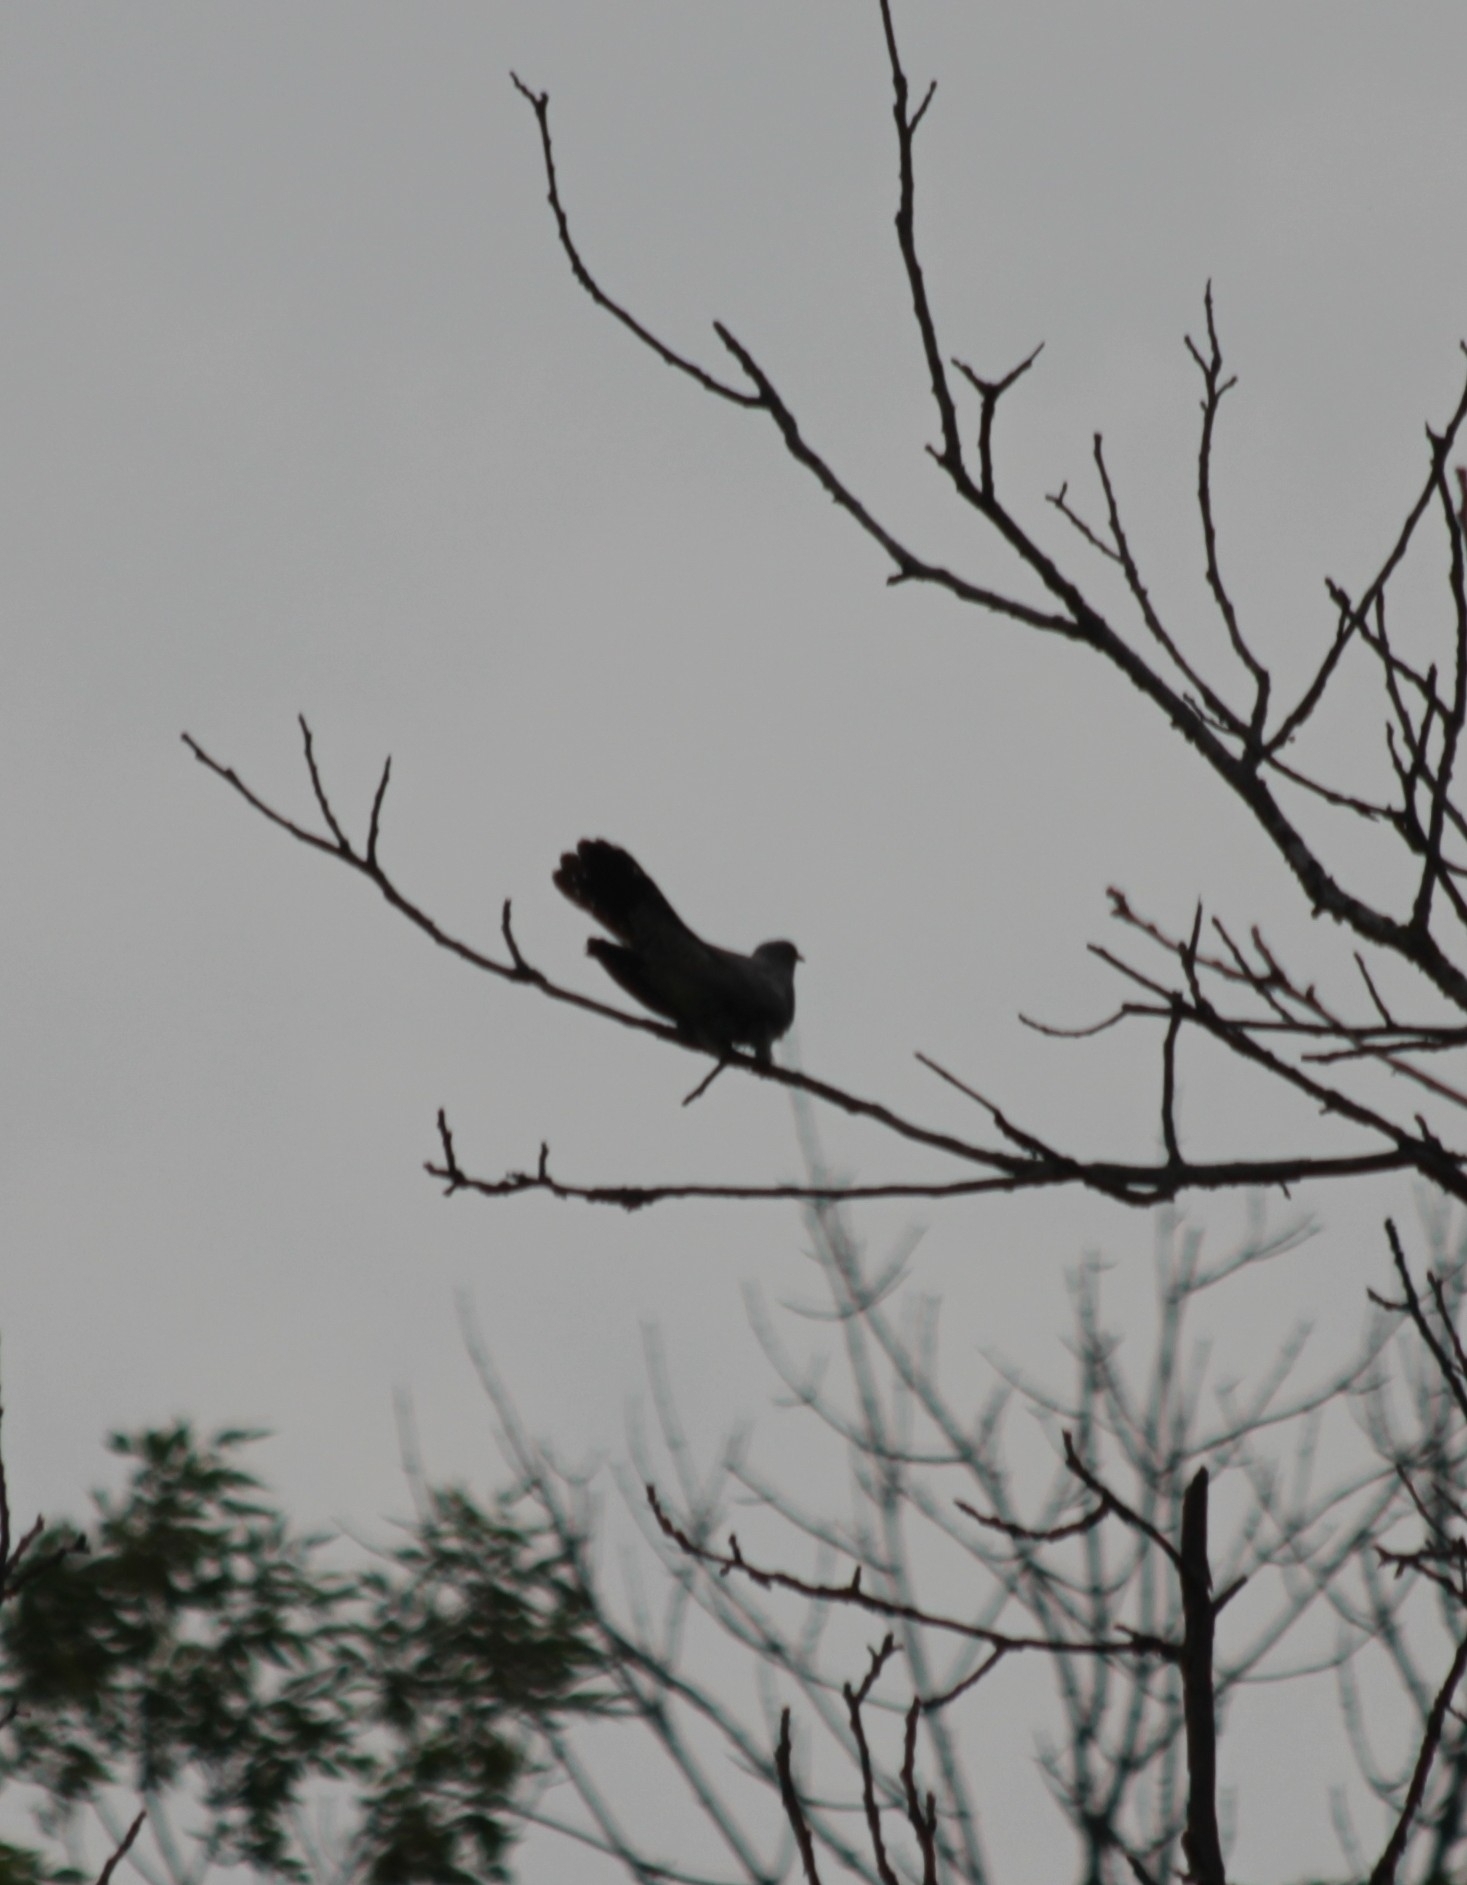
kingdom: Animalia
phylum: Chordata
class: Aves
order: Cuculiformes
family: Cuculidae
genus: Cuculus
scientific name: Cuculus canorus
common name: Common cuckoo
